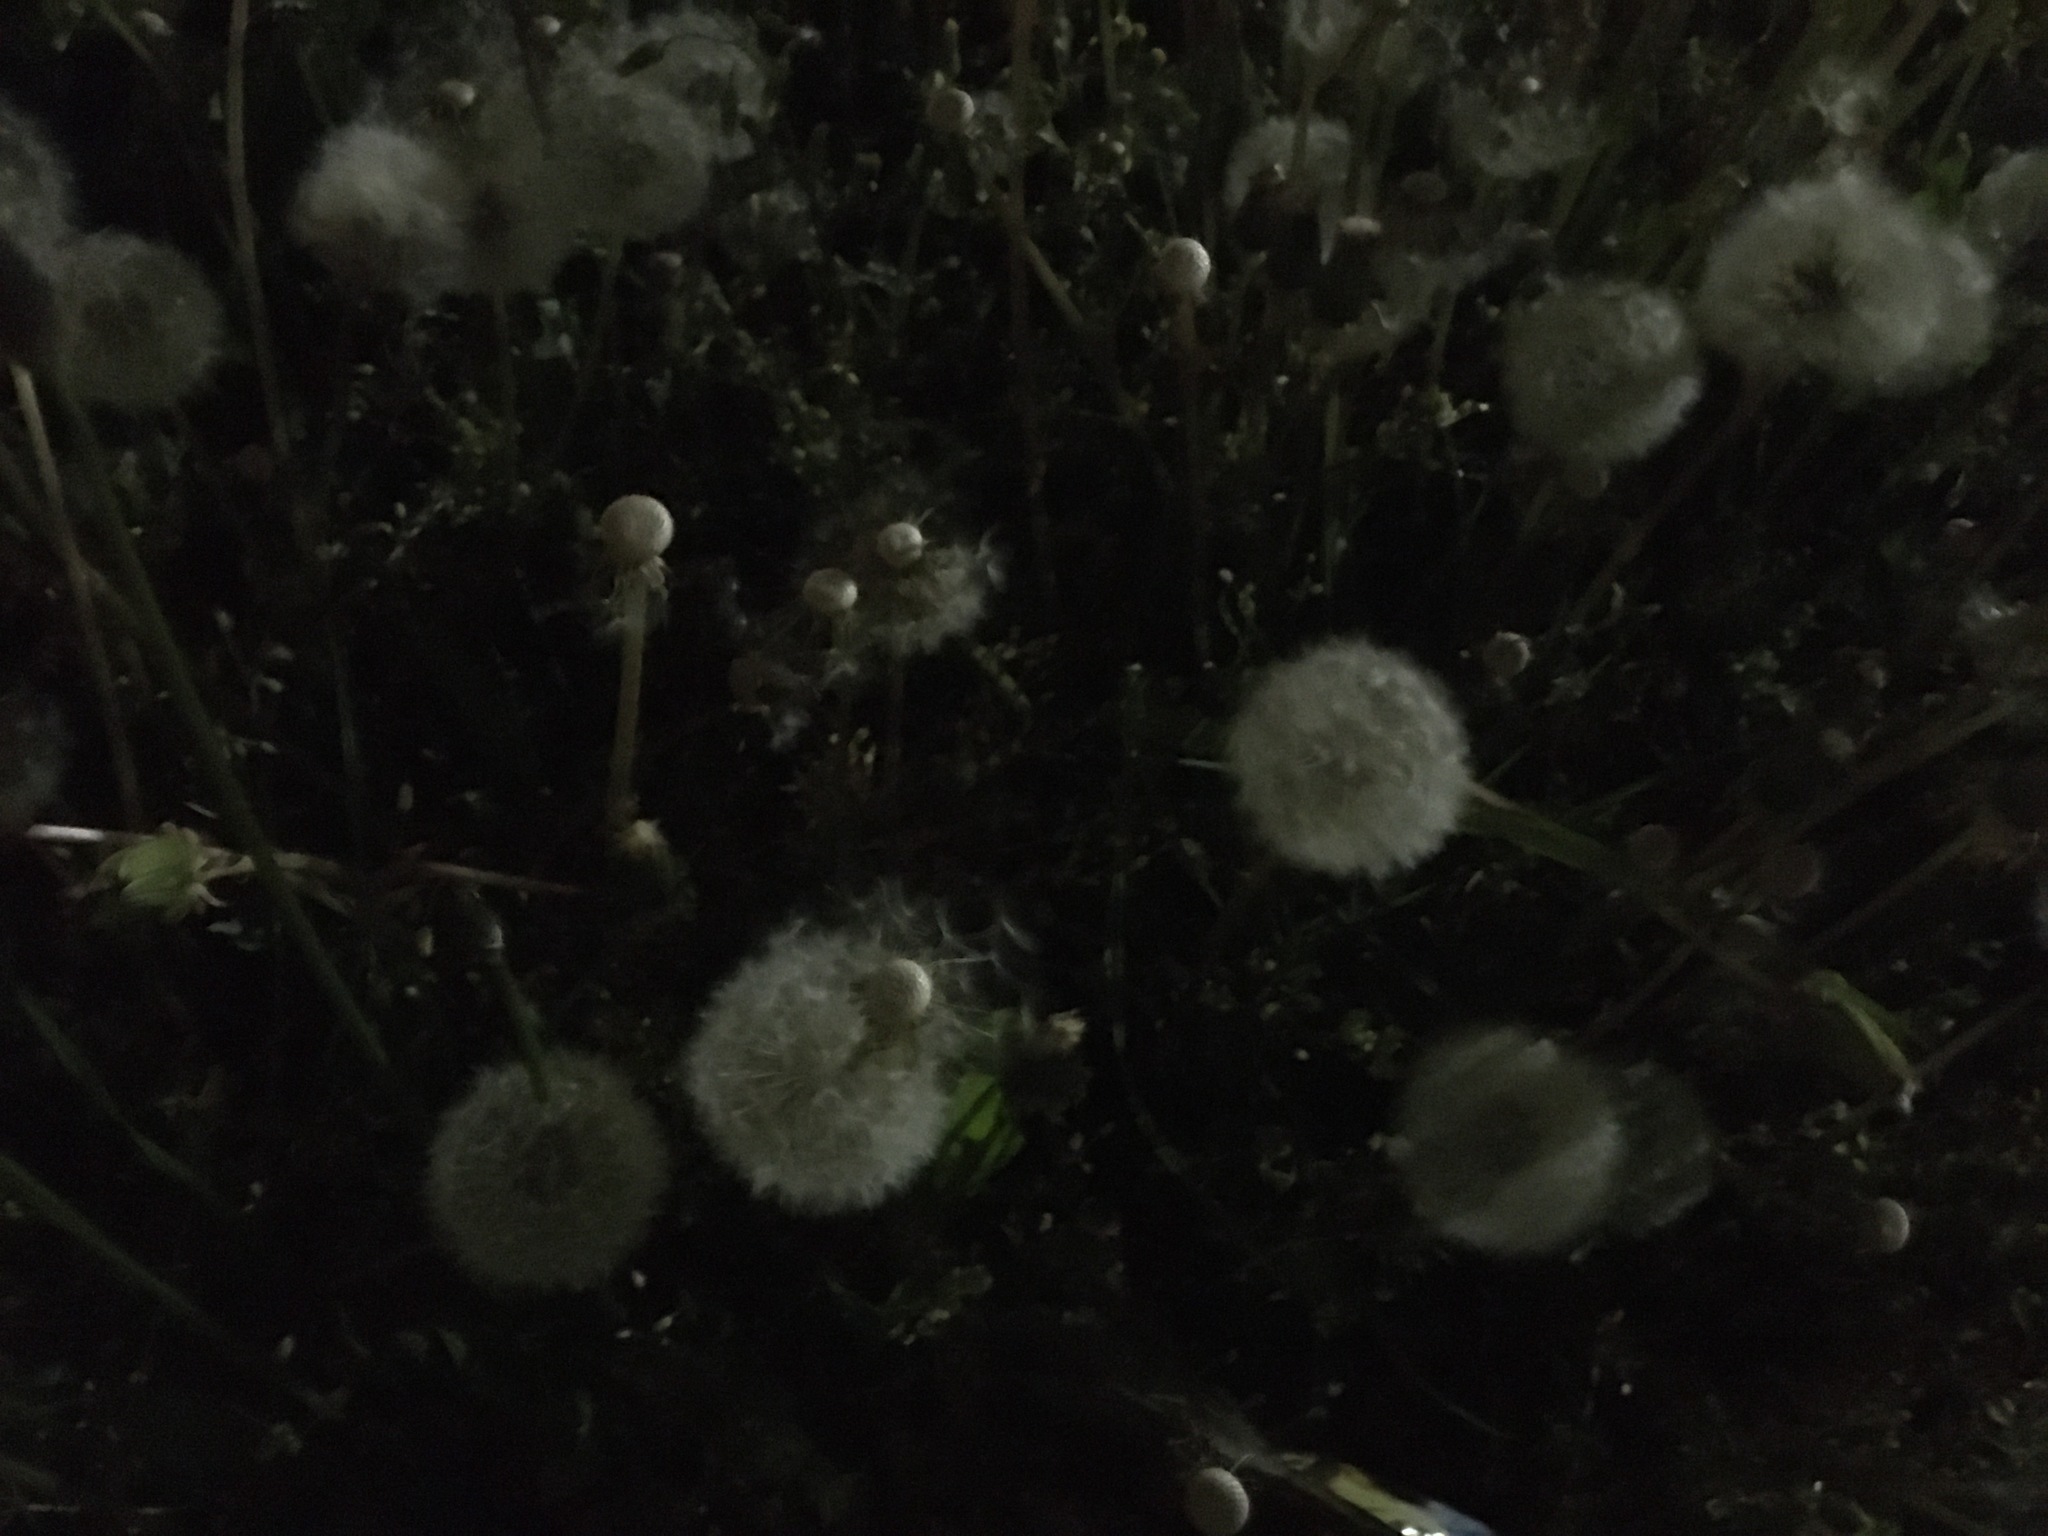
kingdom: Plantae
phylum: Tracheophyta
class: Magnoliopsida
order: Asterales
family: Asteraceae
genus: Taraxacum
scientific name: Taraxacum officinale
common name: Common dandelion
